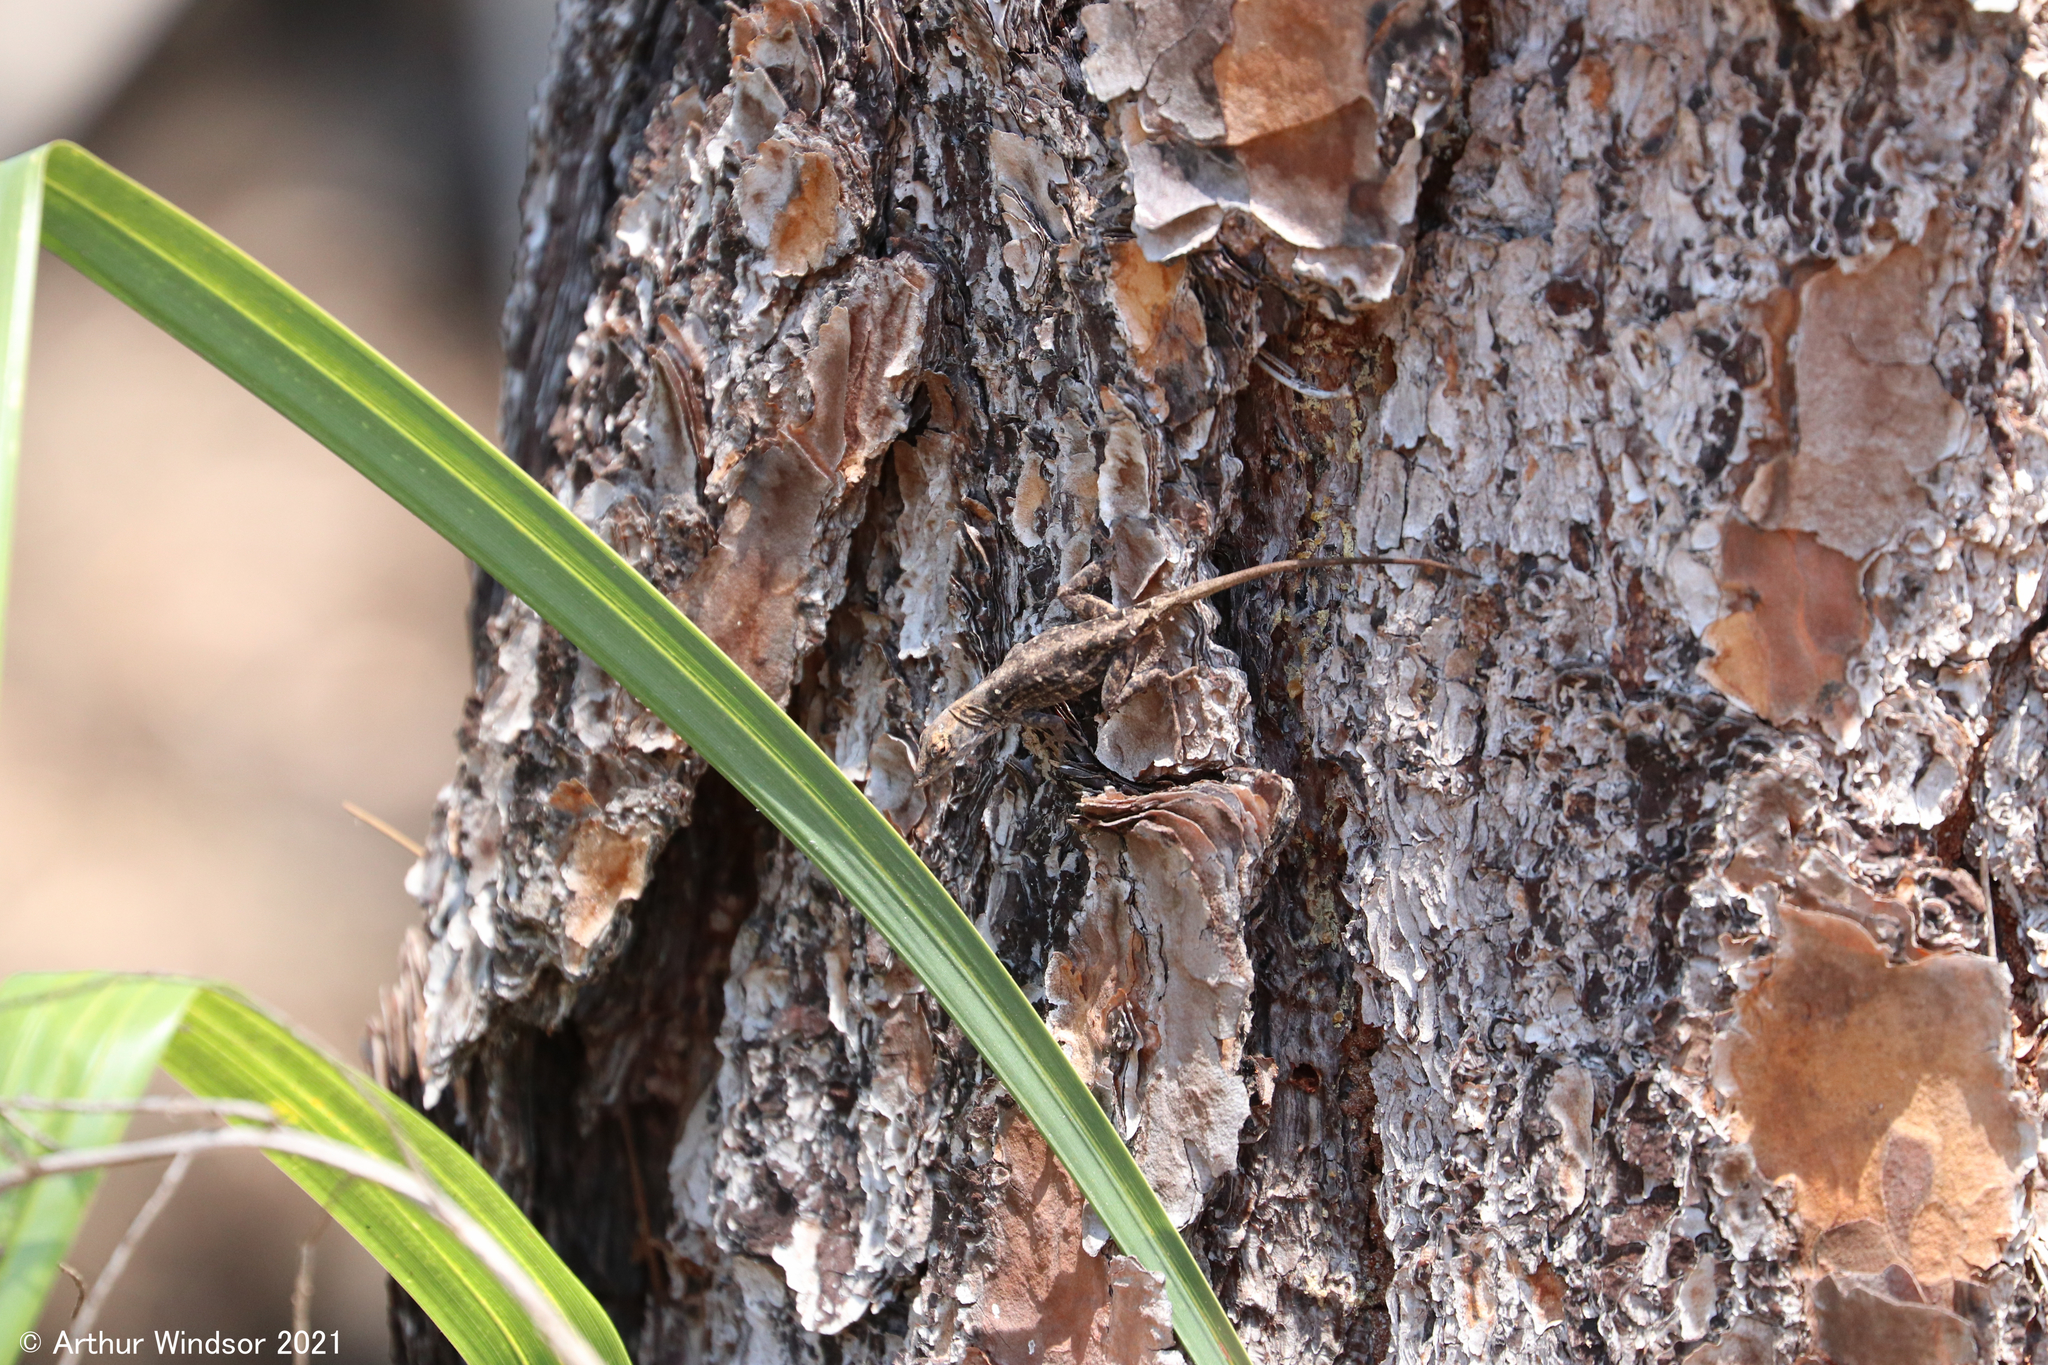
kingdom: Animalia
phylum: Chordata
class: Squamata
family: Dactyloidae
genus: Anolis
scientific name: Anolis sagrei
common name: Brown anole
